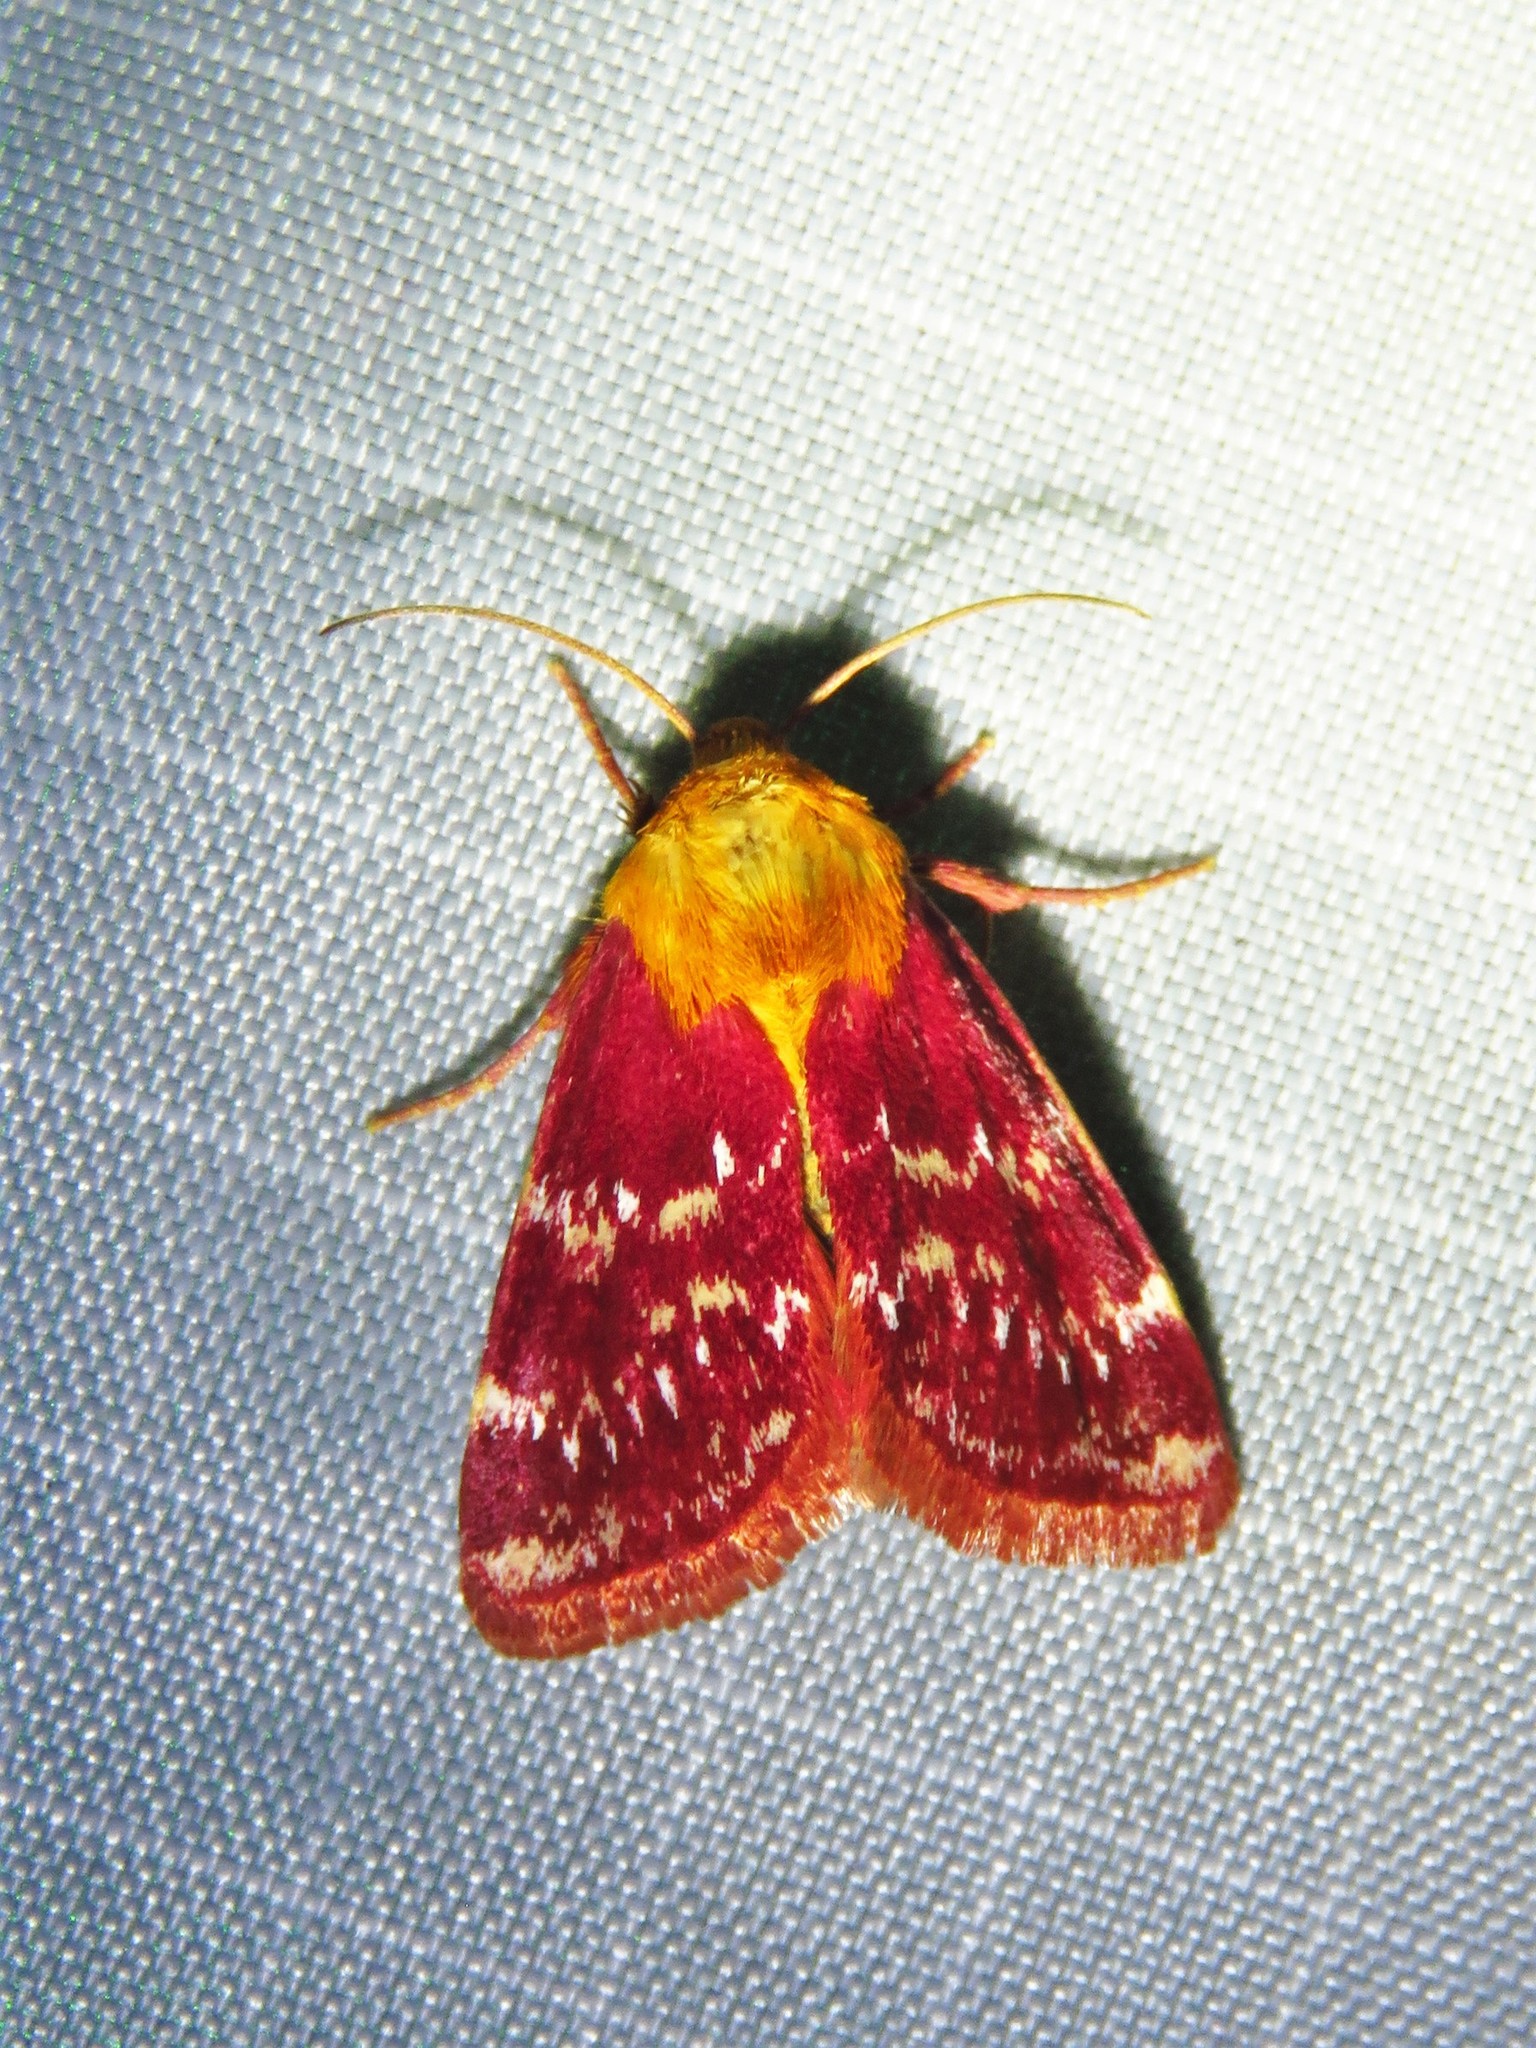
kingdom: Animalia
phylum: Arthropoda
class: Insecta
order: Lepidoptera
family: Noctuidae
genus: Schinia
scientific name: Schinia volupia
